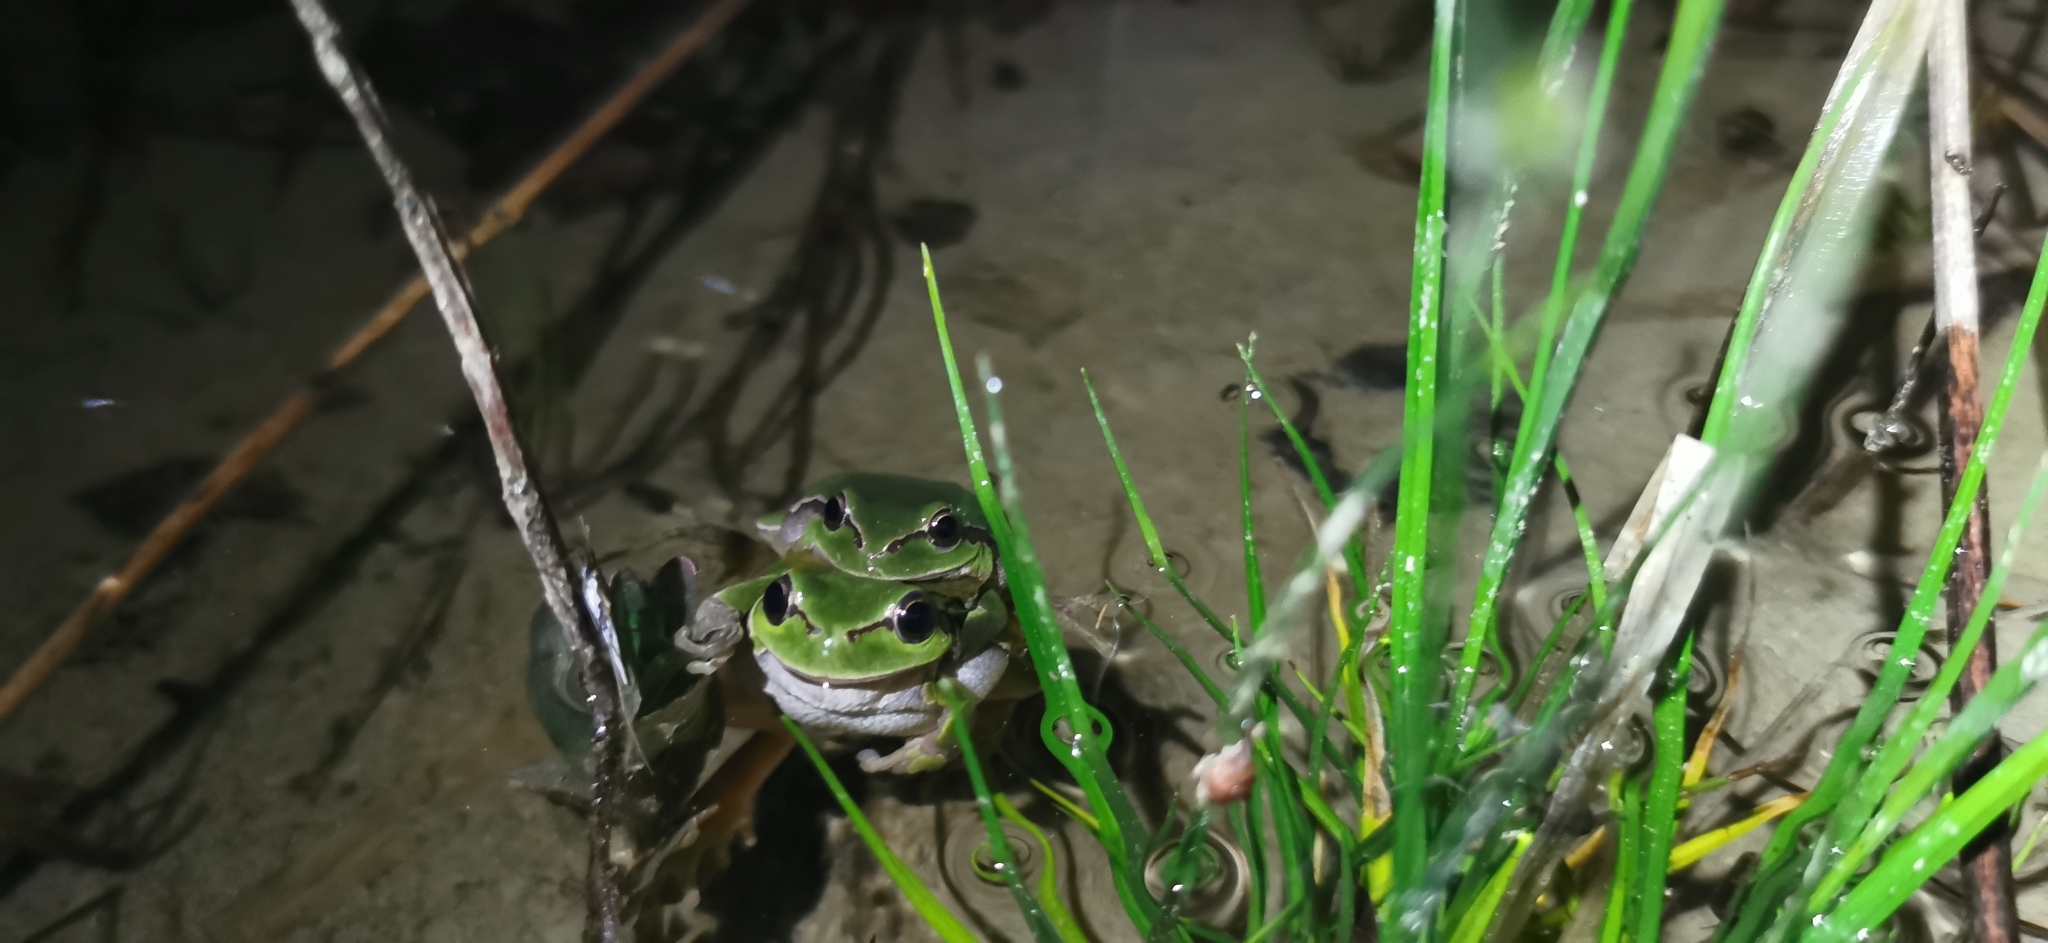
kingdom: Animalia
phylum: Chordata
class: Amphibia
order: Anura
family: Hylidae
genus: Hyla
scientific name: Hyla arborea
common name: Common tree frog
